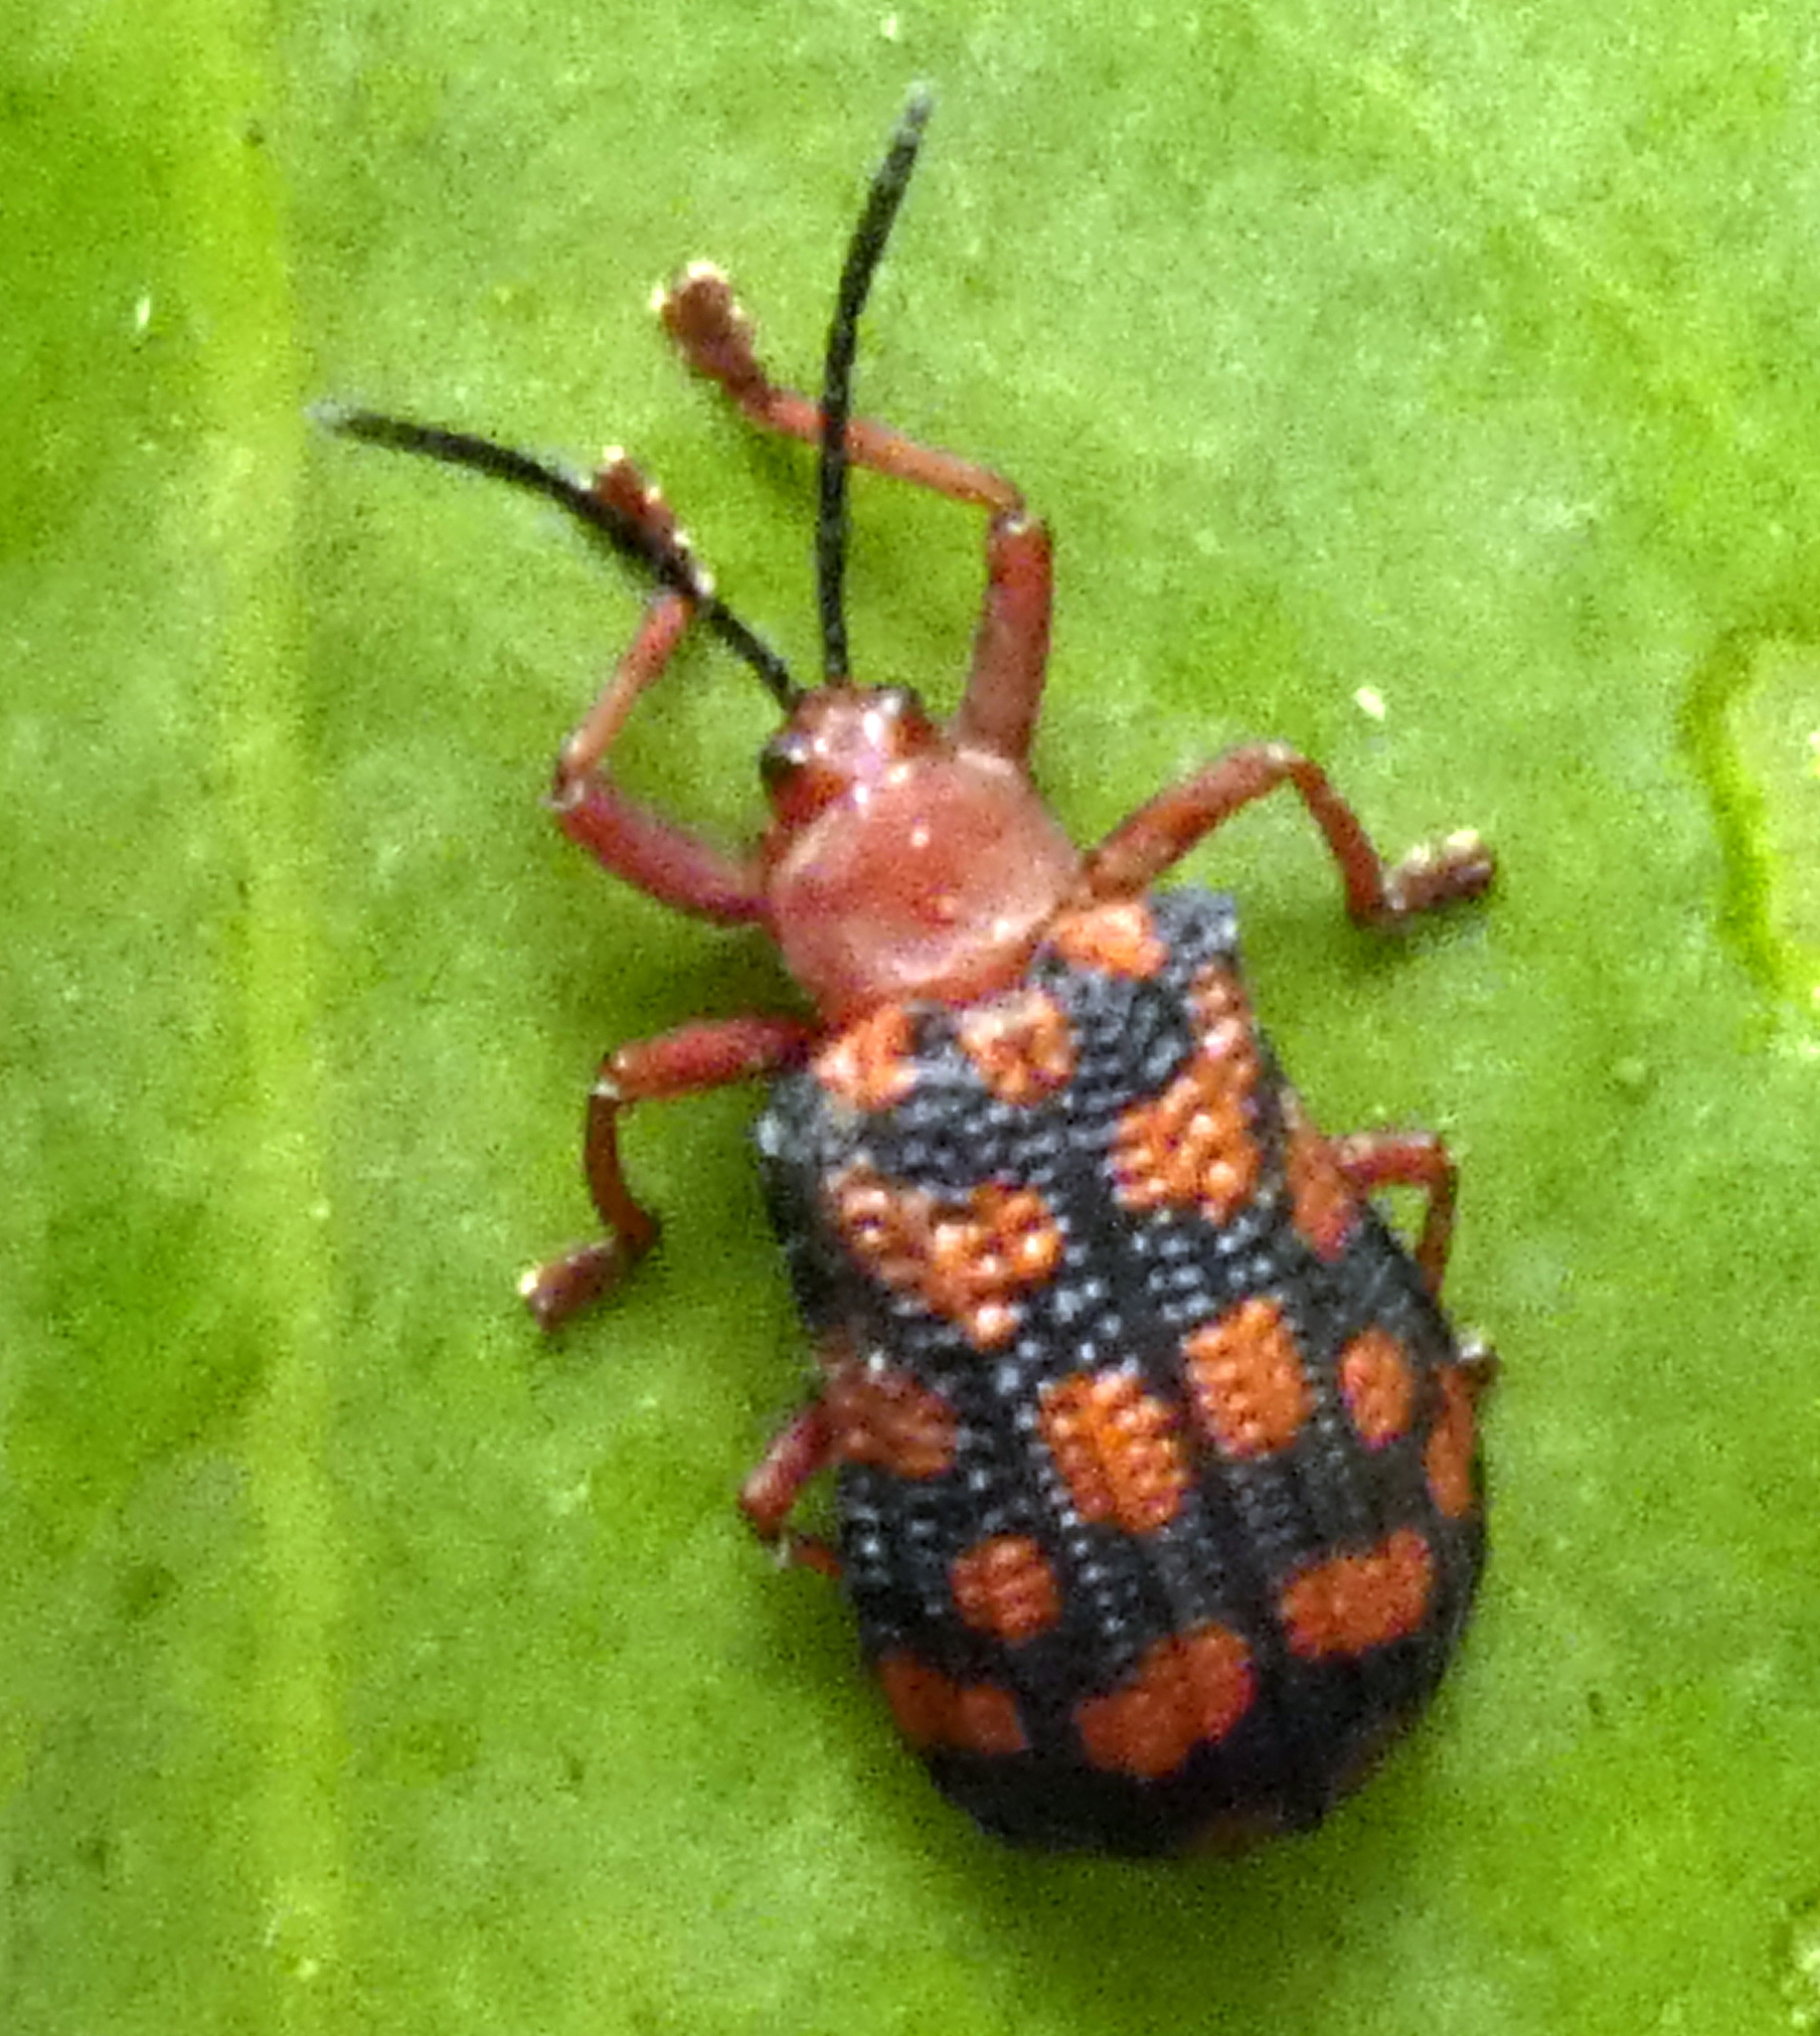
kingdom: Animalia
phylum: Arthropoda
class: Insecta
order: Coleoptera
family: Chrysomelidae
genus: Sceloenopla
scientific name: Sceloenopla maculata
